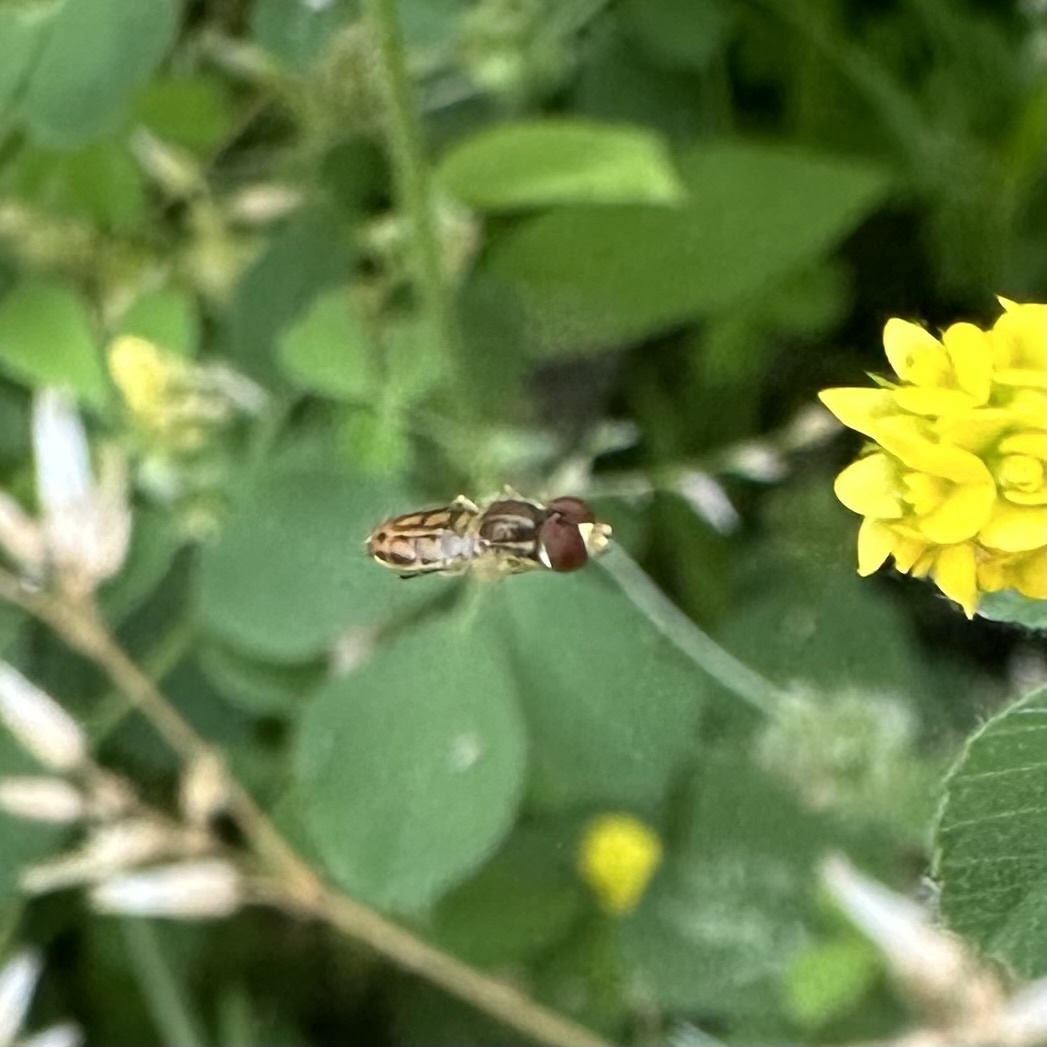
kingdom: Animalia
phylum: Arthropoda
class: Insecta
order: Diptera
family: Syrphidae
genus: Toxomerus
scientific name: Toxomerus marginatus
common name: Syrphid fly
